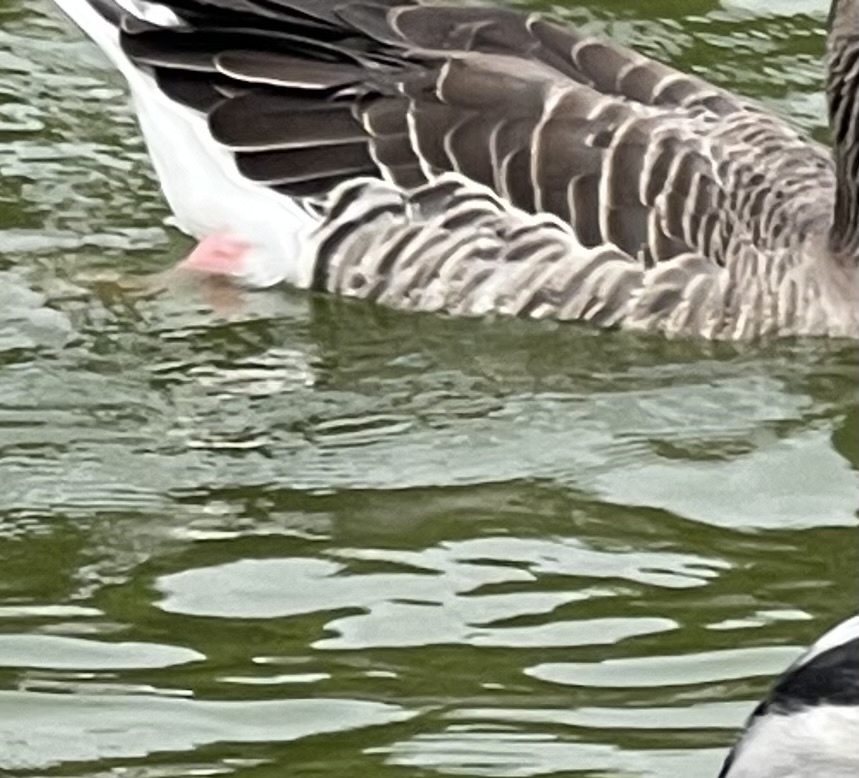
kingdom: Animalia
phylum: Chordata
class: Aves
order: Anseriformes
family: Anatidae
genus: Anser
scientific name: Anser anser
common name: Greylag goose
